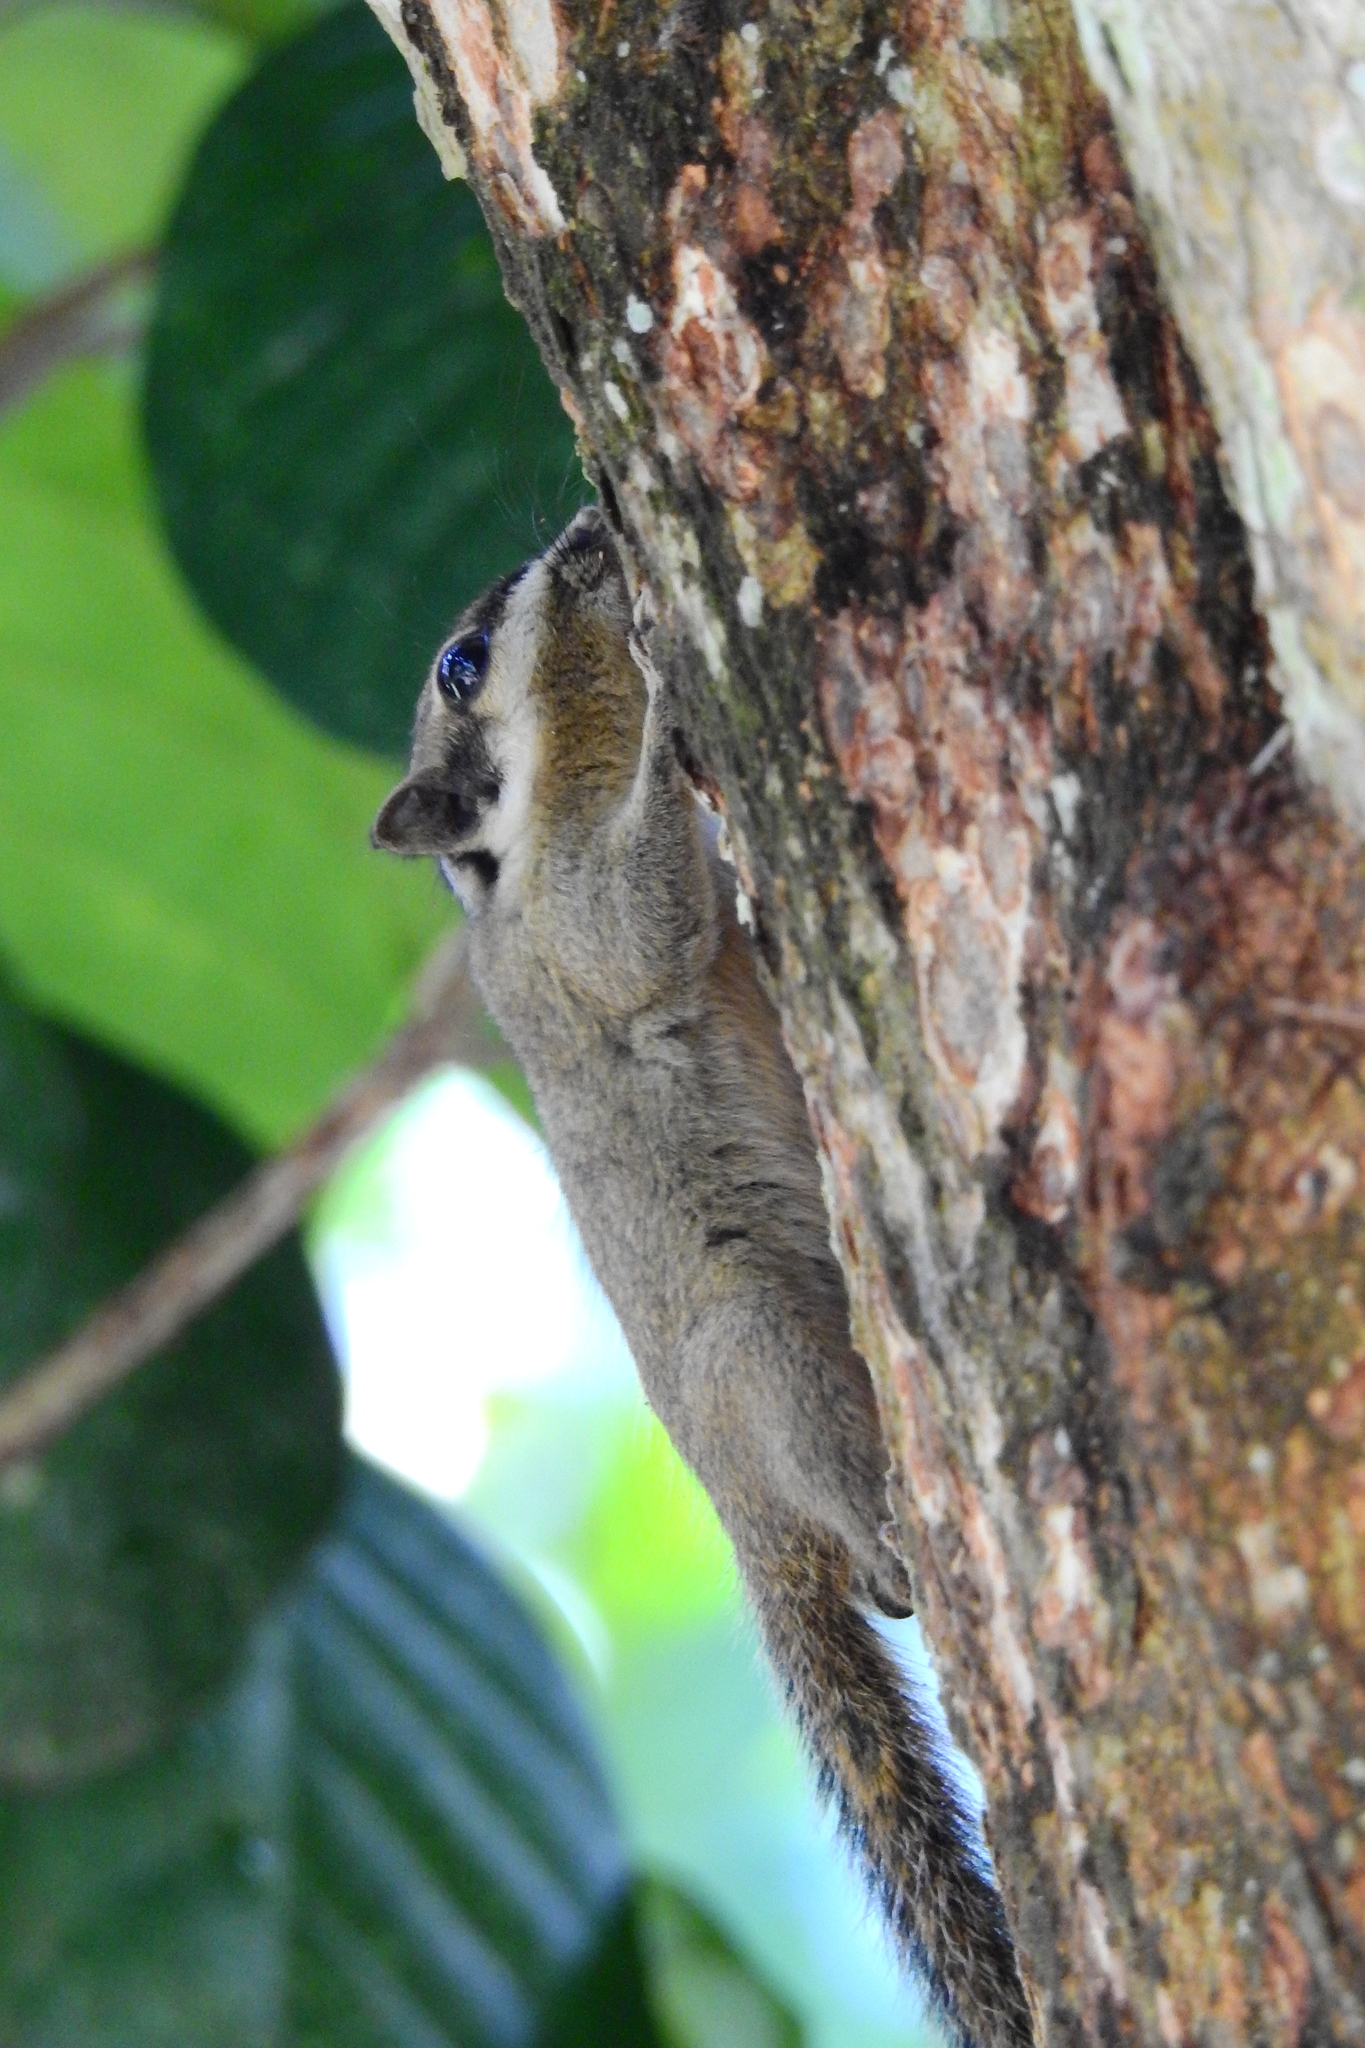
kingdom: Animalia
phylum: Chordata
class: Mammalia
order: Rodentia
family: Sciuridae
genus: Nannosciurus
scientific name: Nannosciurus melanotis
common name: Black-eared squirrel
